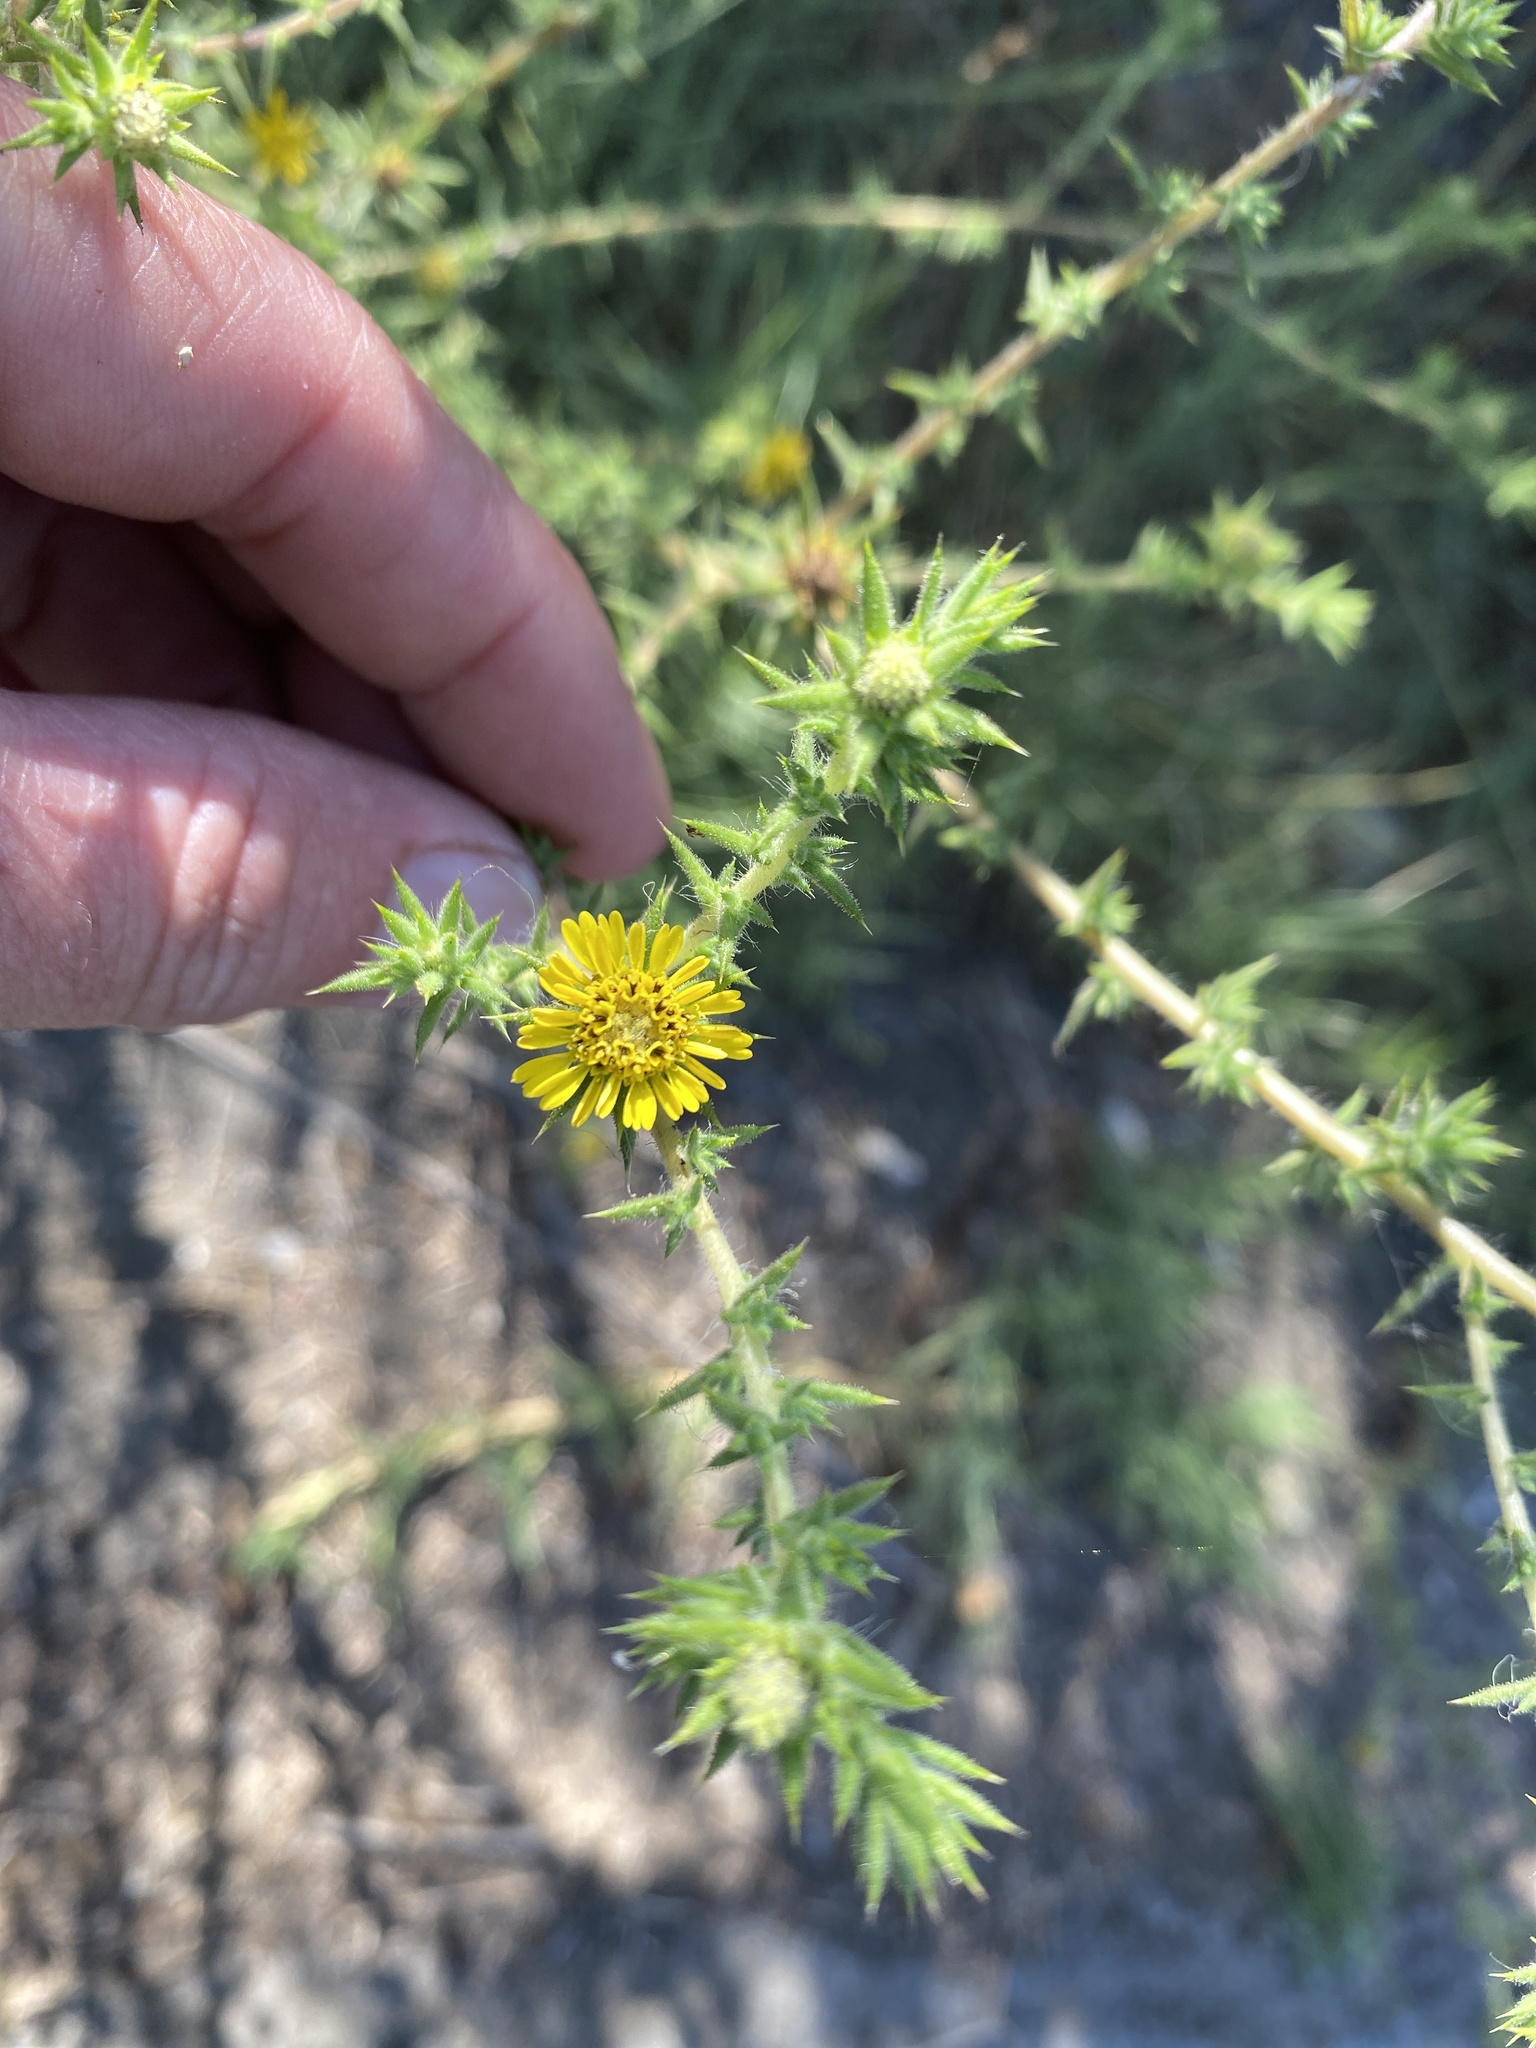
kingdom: Plantae
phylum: Tracheophyta
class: Magnoliopsida
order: Asterales
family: Asteraceae
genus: Centromadia
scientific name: Centromadia parryi
